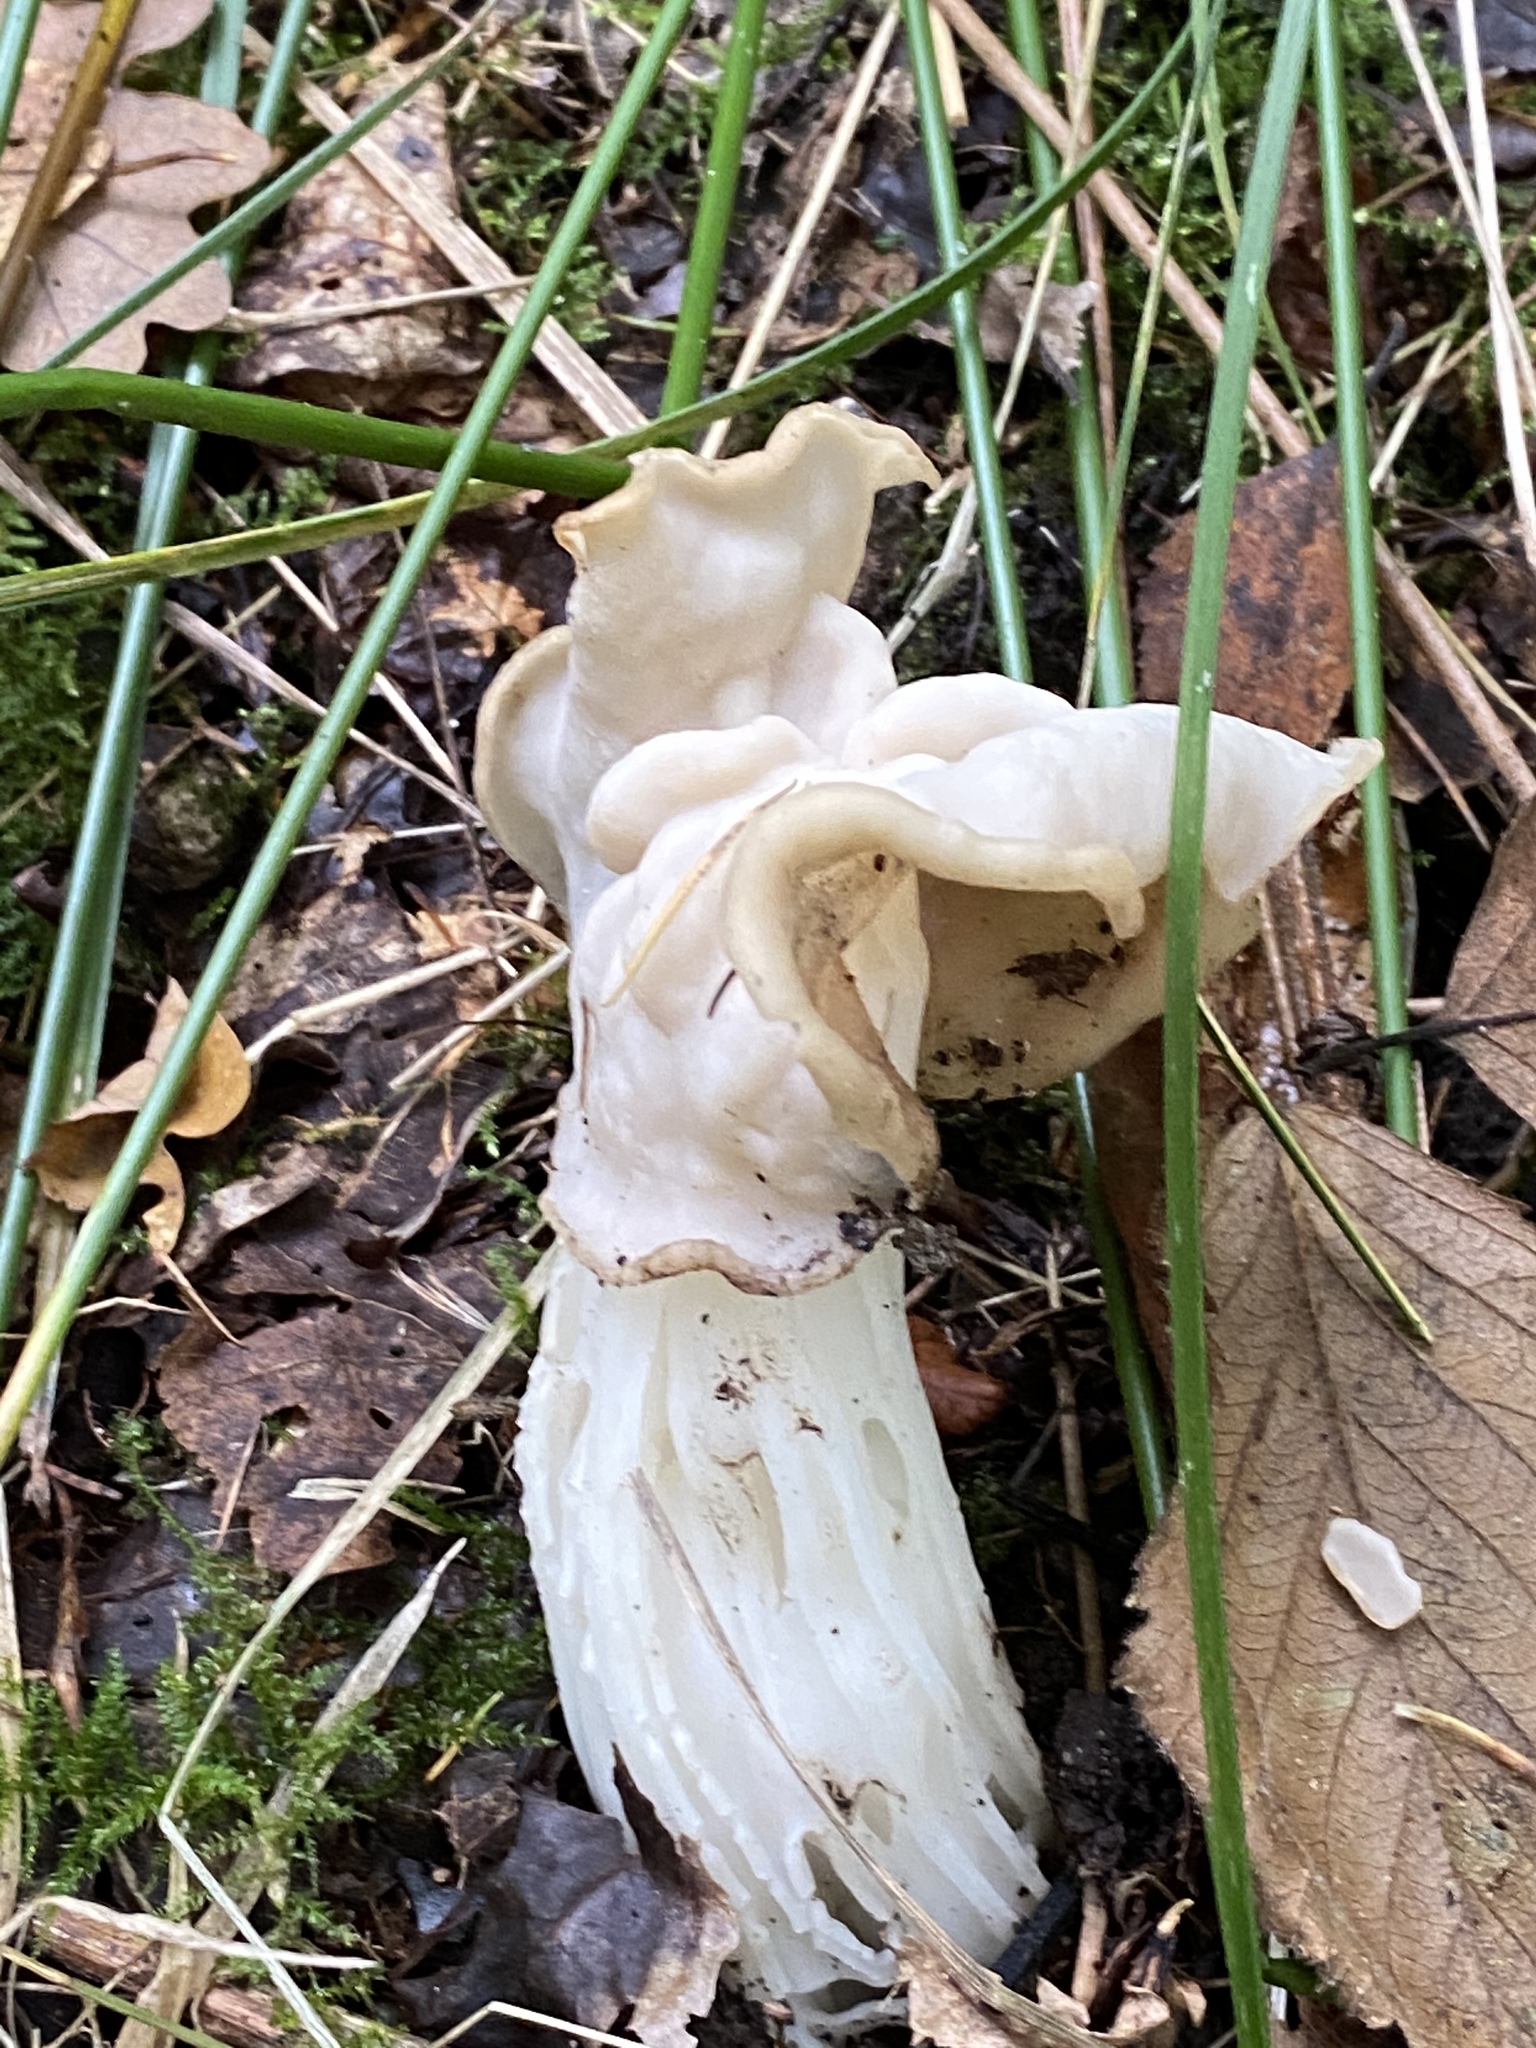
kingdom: Fungi
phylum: Ascomycota
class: Pezizomycetes
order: Pezizales
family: Helvellaceae
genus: Helvella
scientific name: Helvella crispa
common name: White saddle
